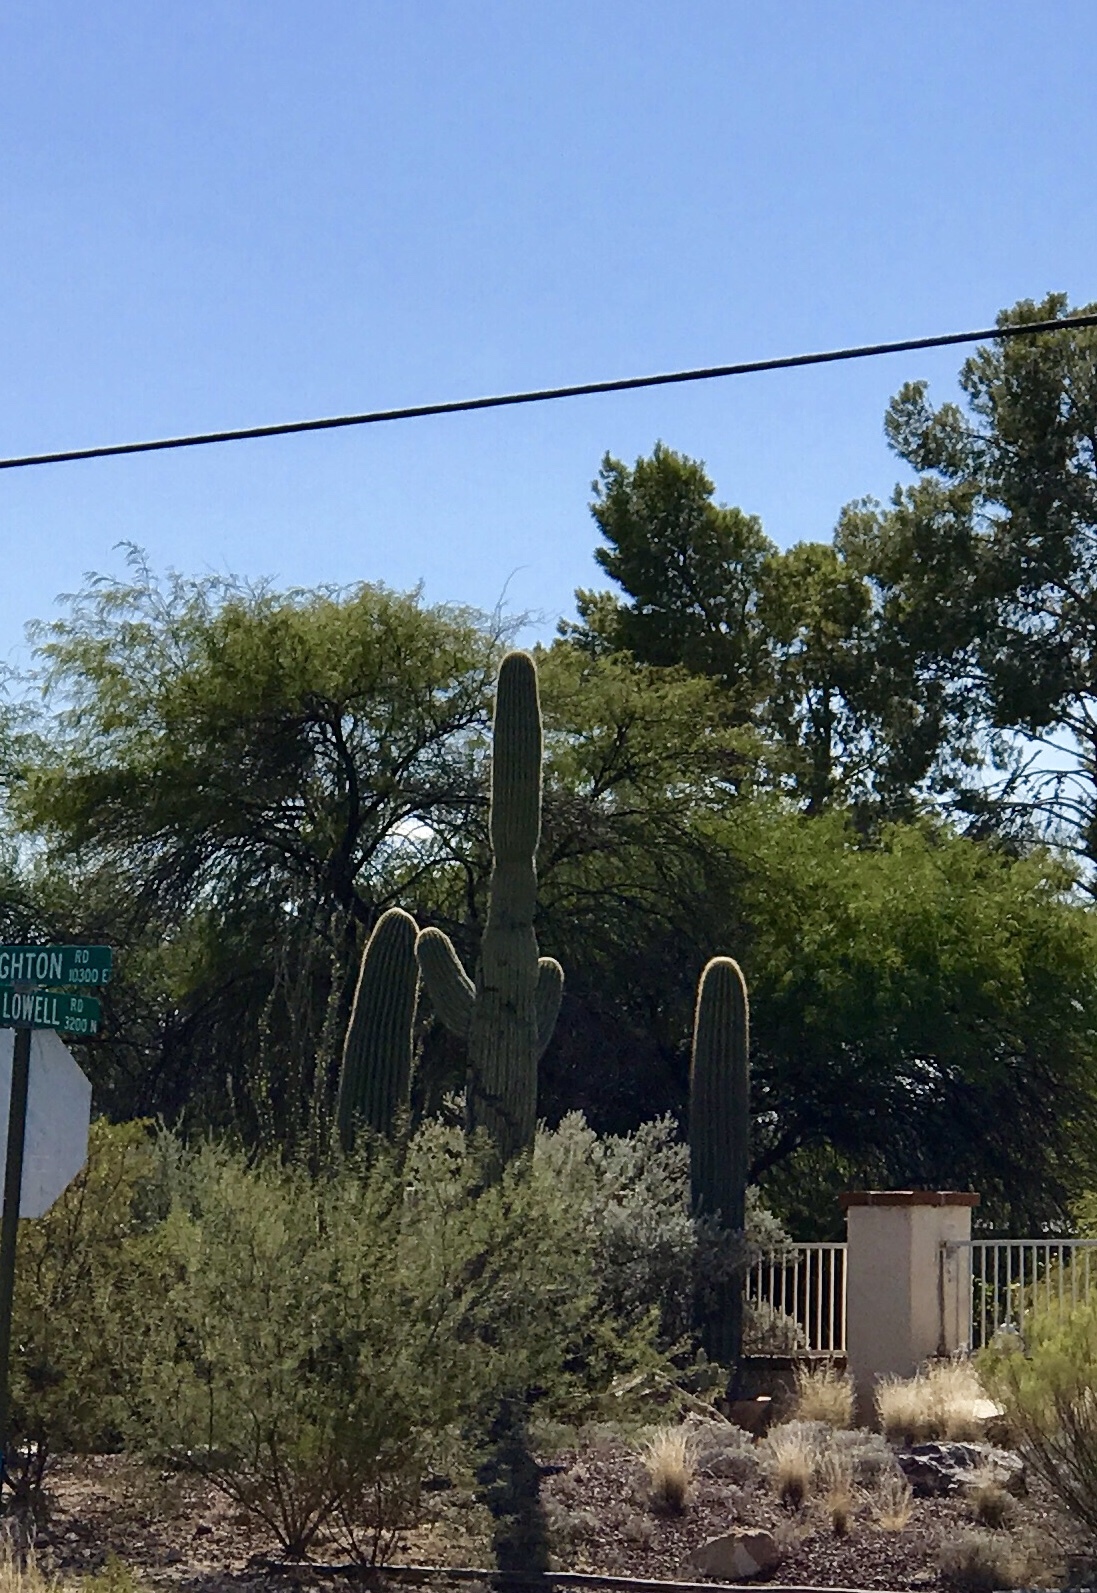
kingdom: Plantae
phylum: Tracheophyta
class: Magnoliopsida
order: Caryophyllales
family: Cactaceae
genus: Carnegiea
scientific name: Carnegiea gigantea
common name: Saguaro
